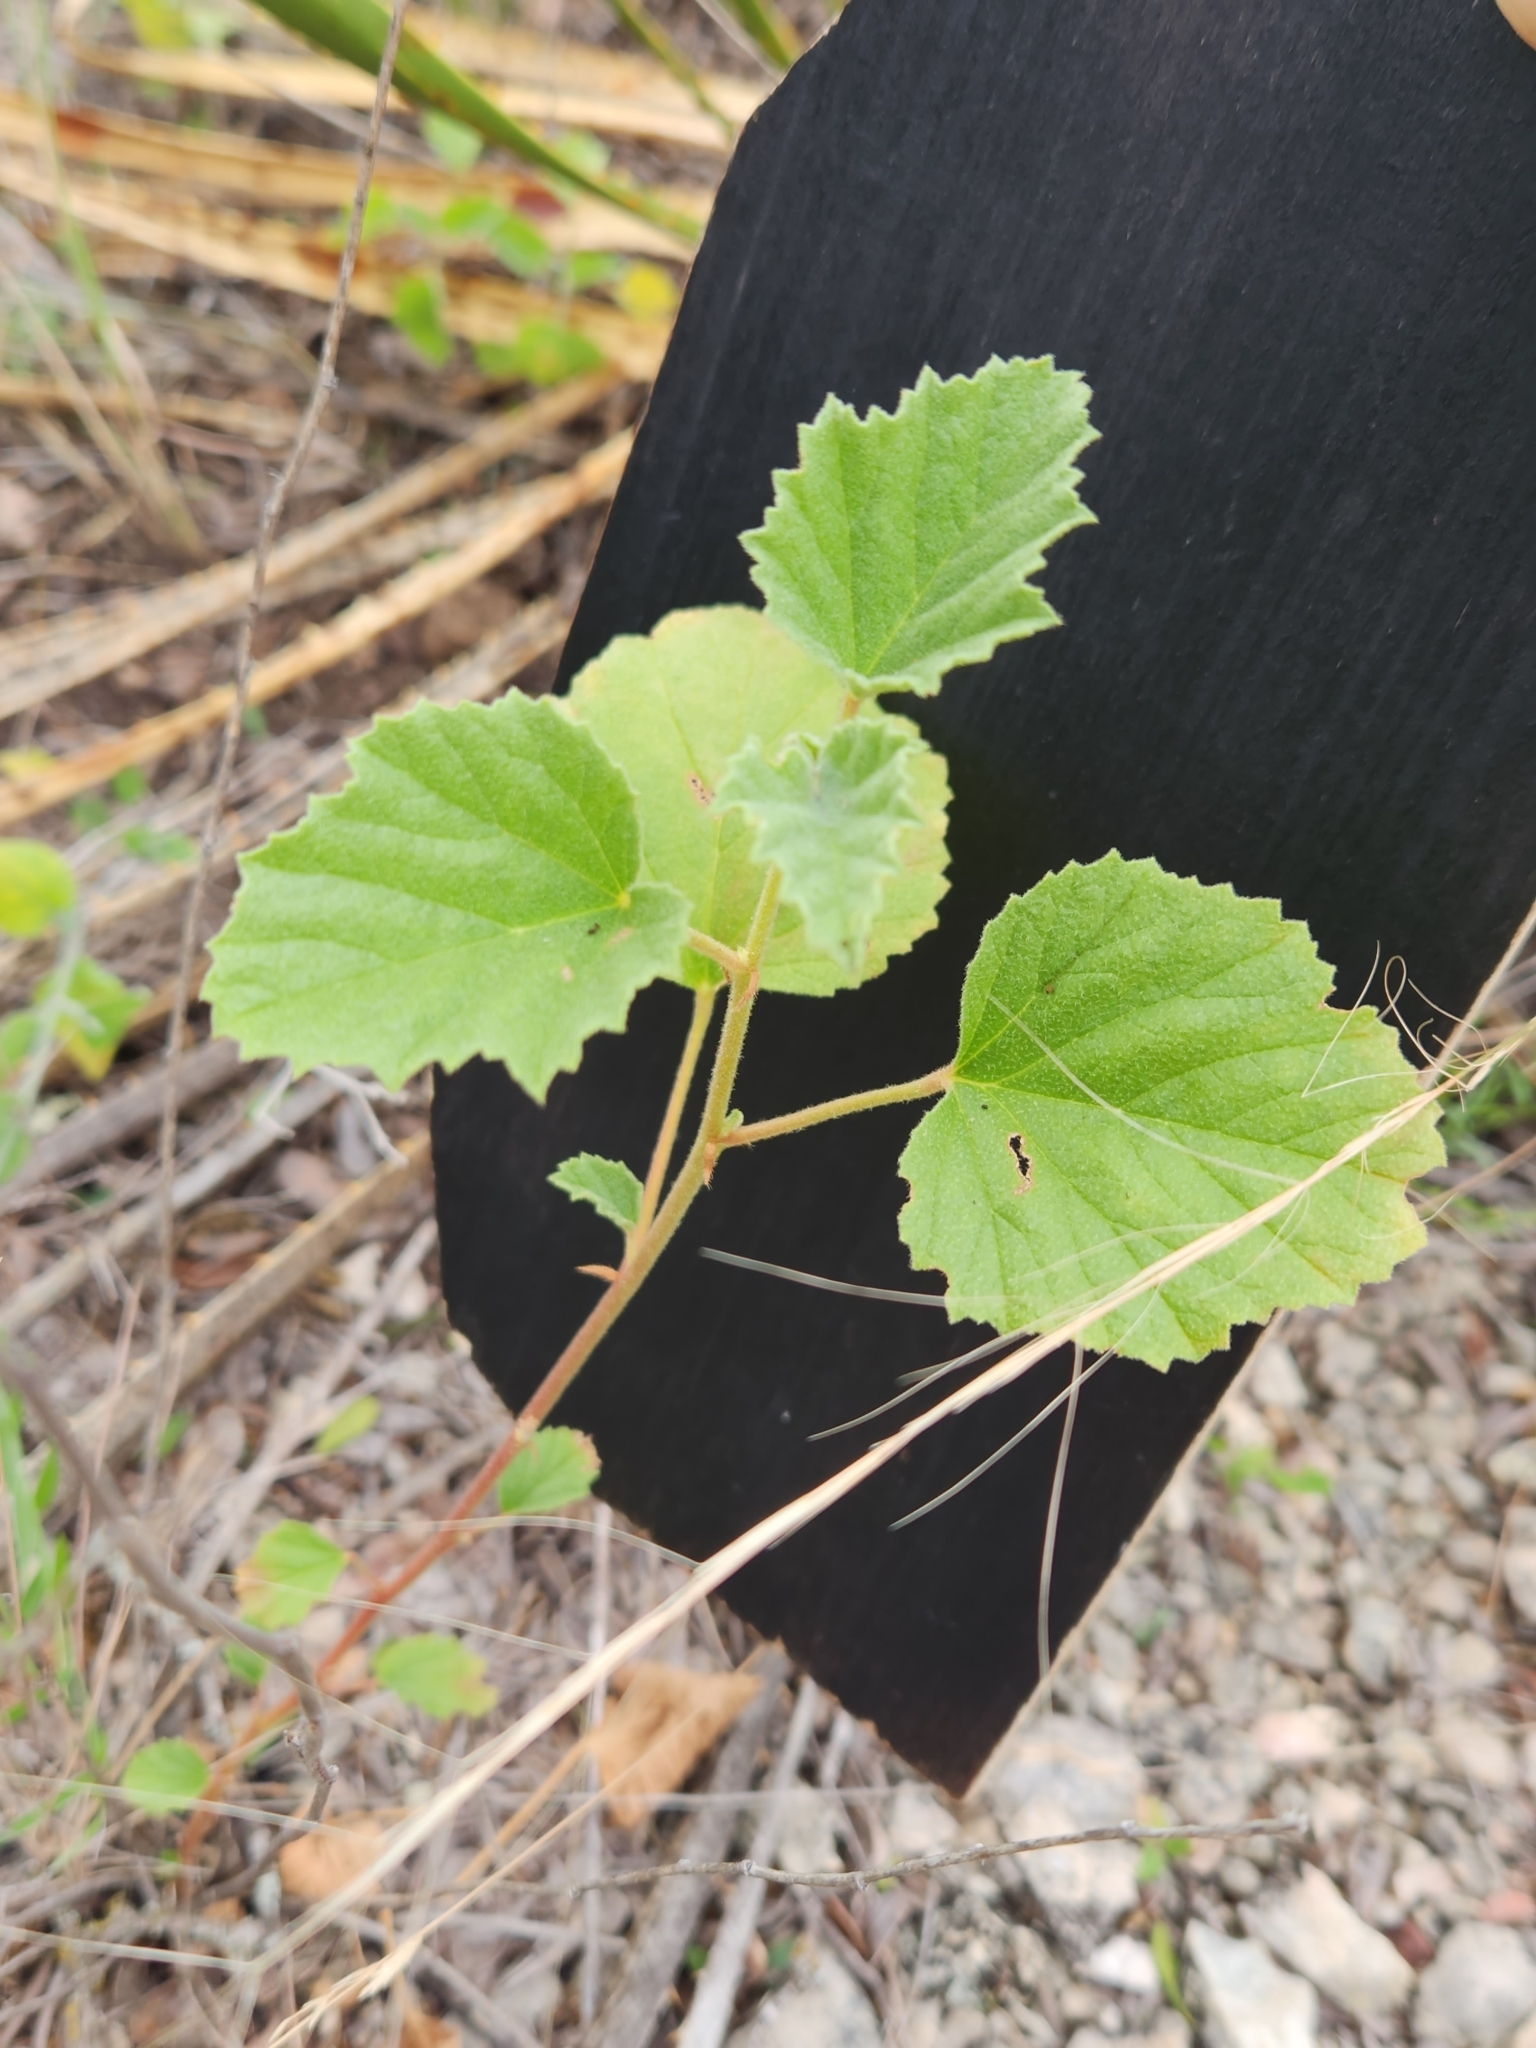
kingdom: Plantae
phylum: Tracheophyta
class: Magnoliopsida
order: Malvales
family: Malvaceae
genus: Hermannia
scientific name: Hermannia texana
